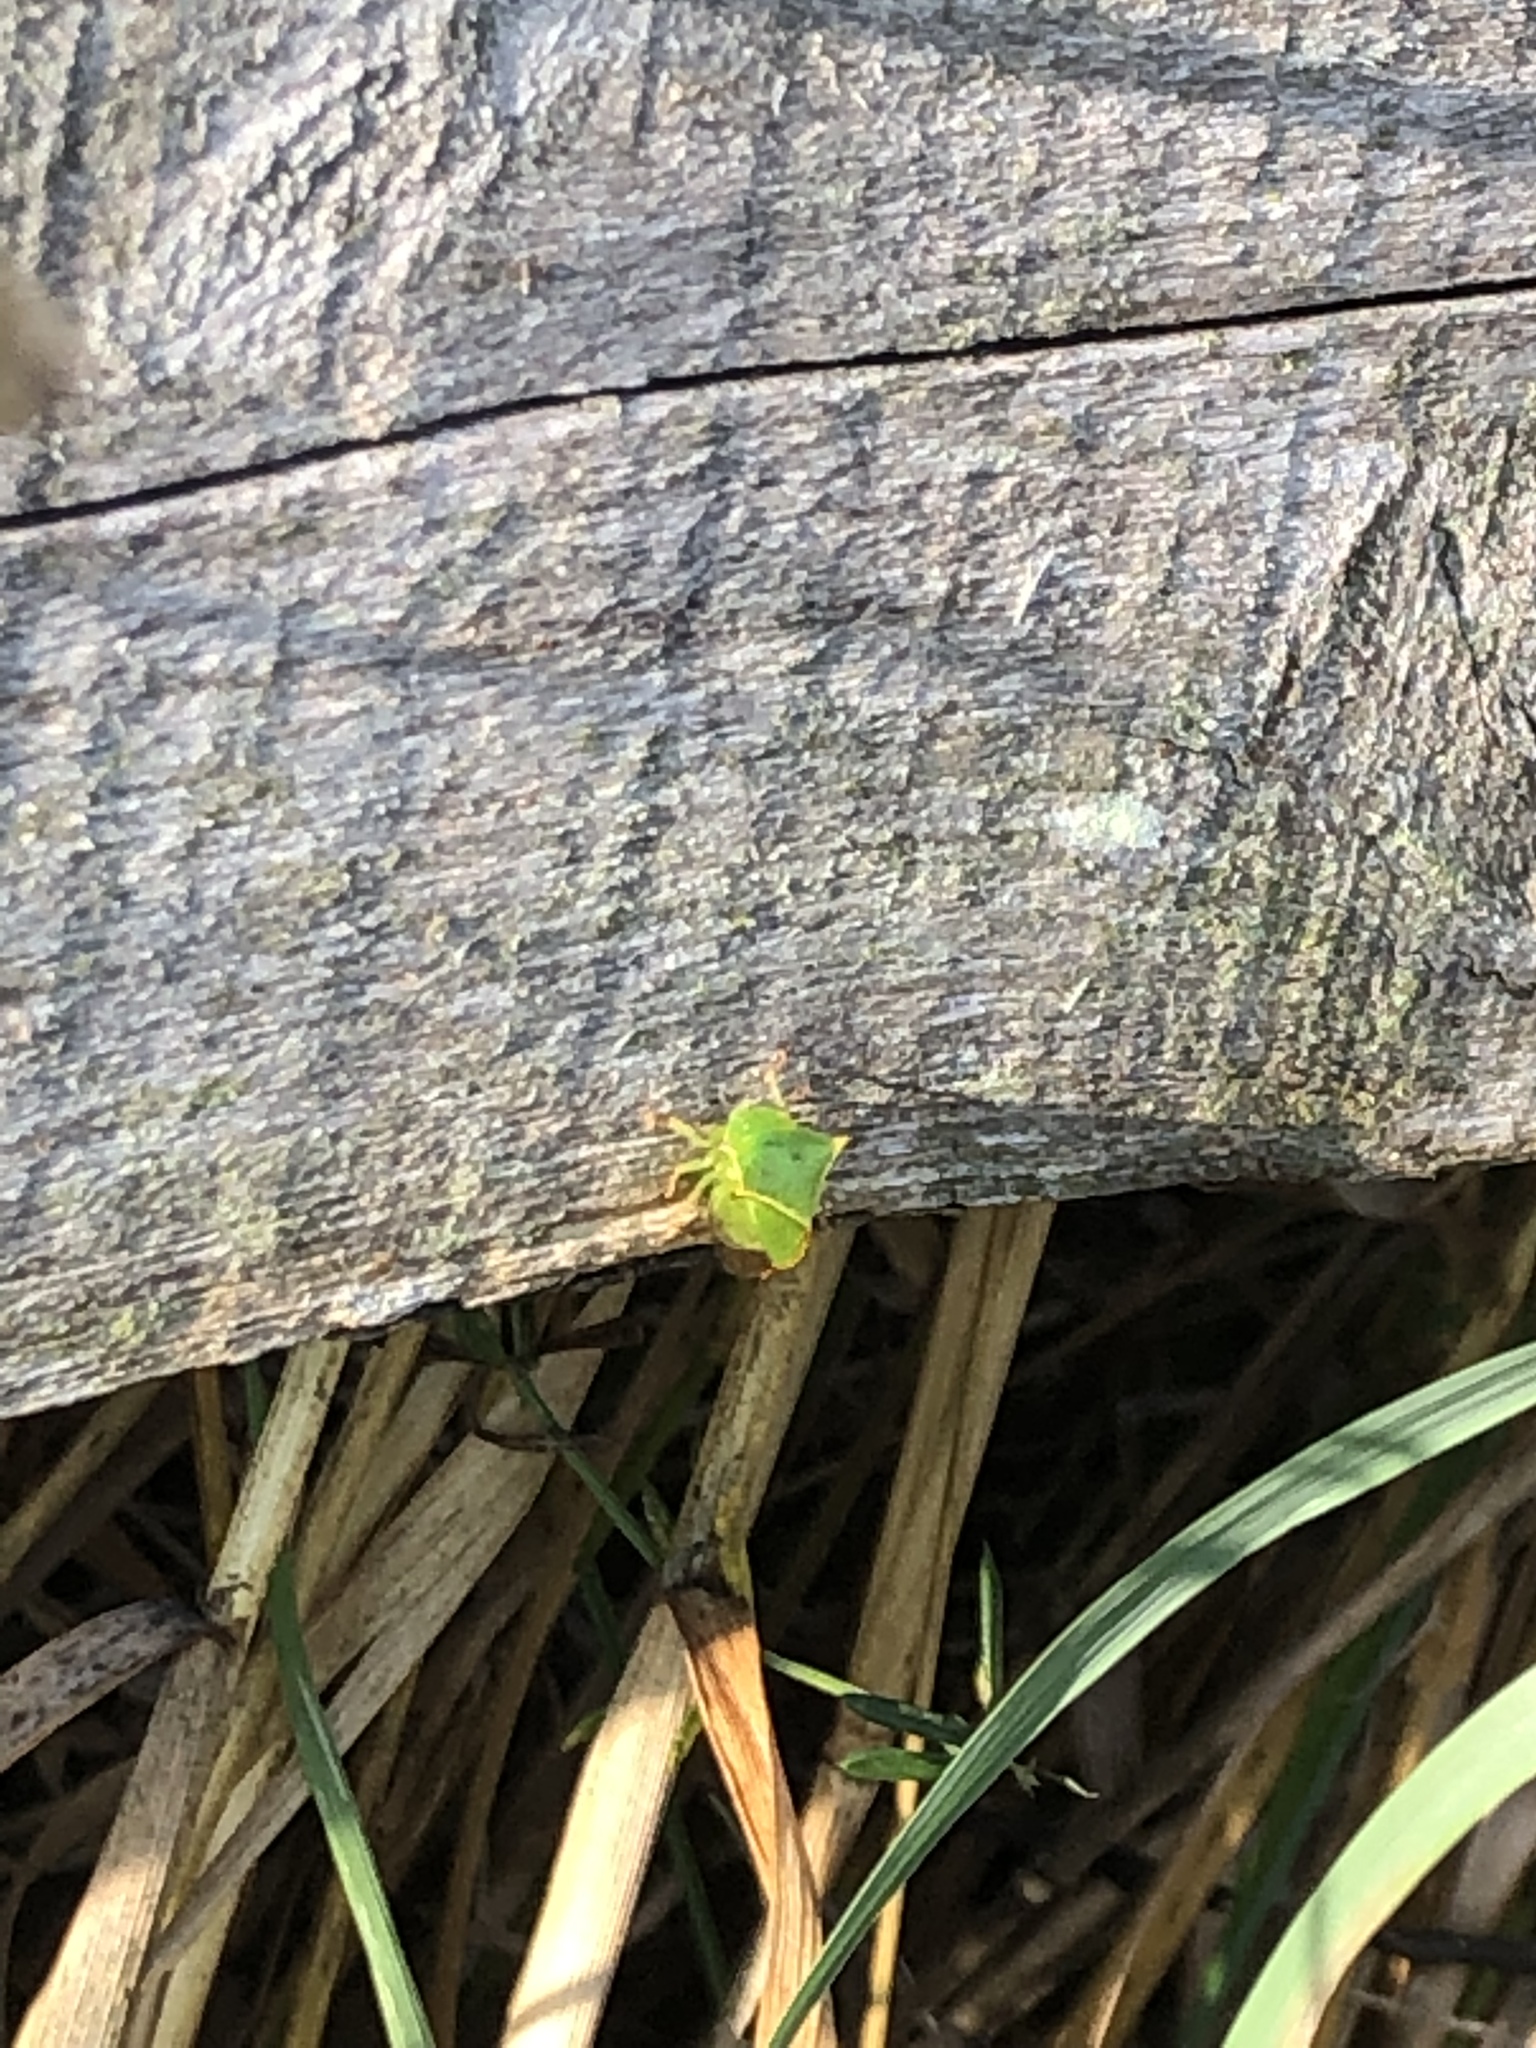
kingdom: Animalia
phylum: Arthropoda
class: Insecta
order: Hemiptera
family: Membracidae
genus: Stictocephala
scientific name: Stictocephala bisonia
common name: American buffalo treehopper
